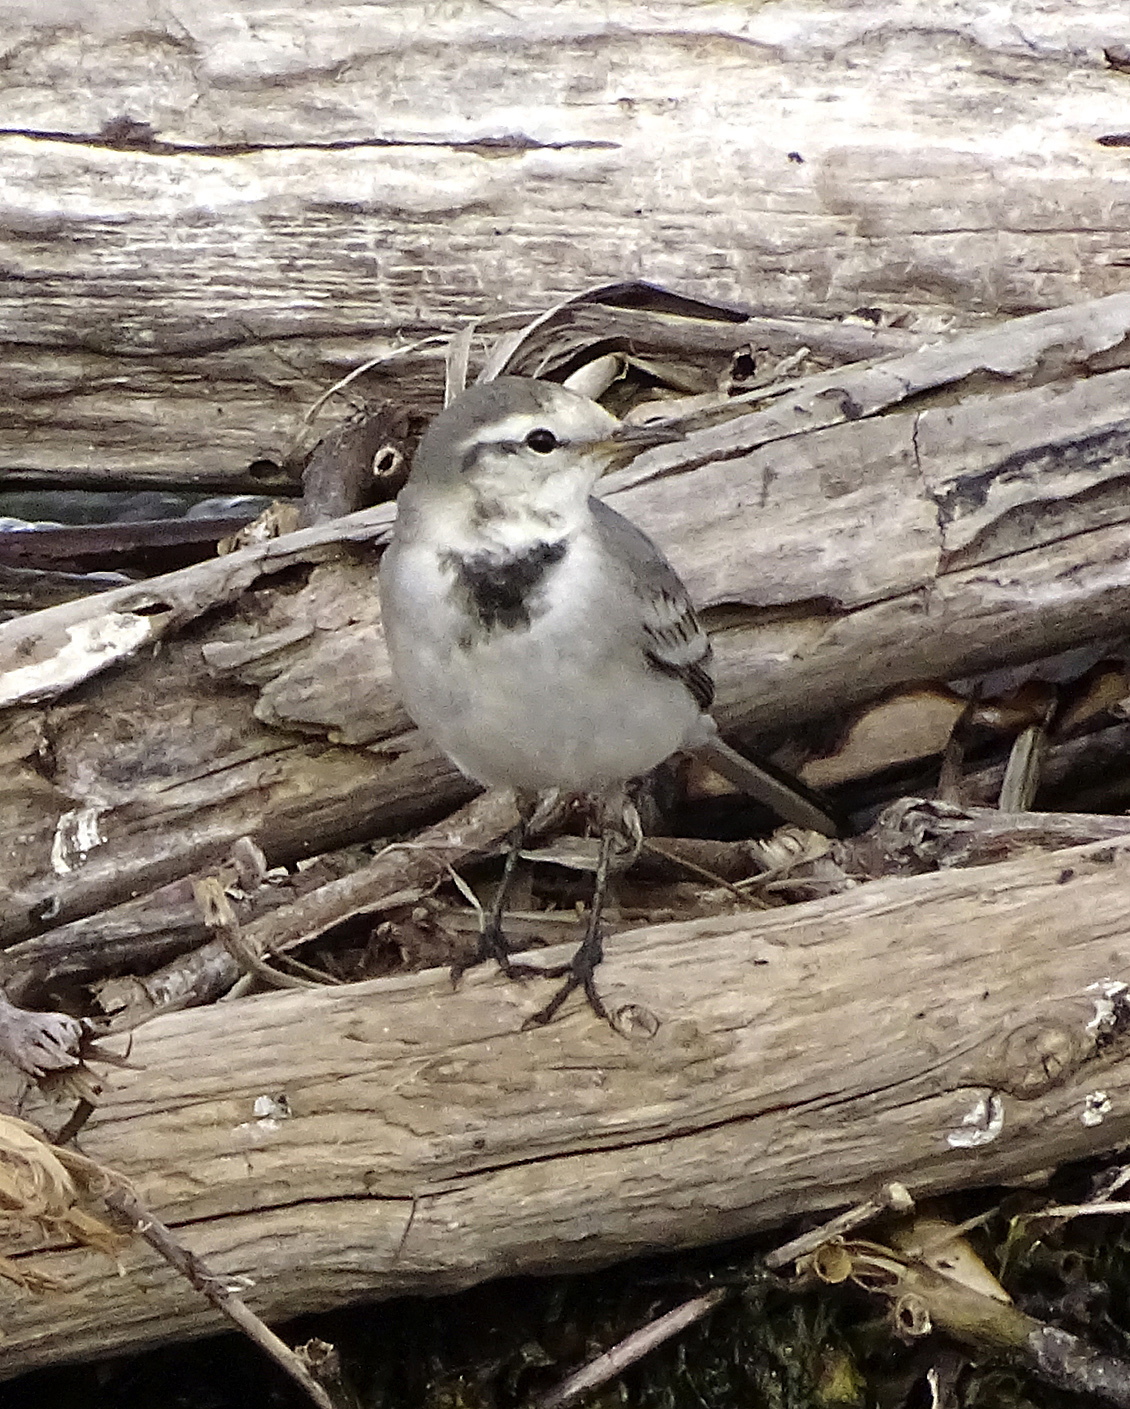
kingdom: Animalia
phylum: Chordata
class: Aves
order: Passeriformes
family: Motacillidae
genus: Motacilla
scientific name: Motacilla alba
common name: White wagtail
